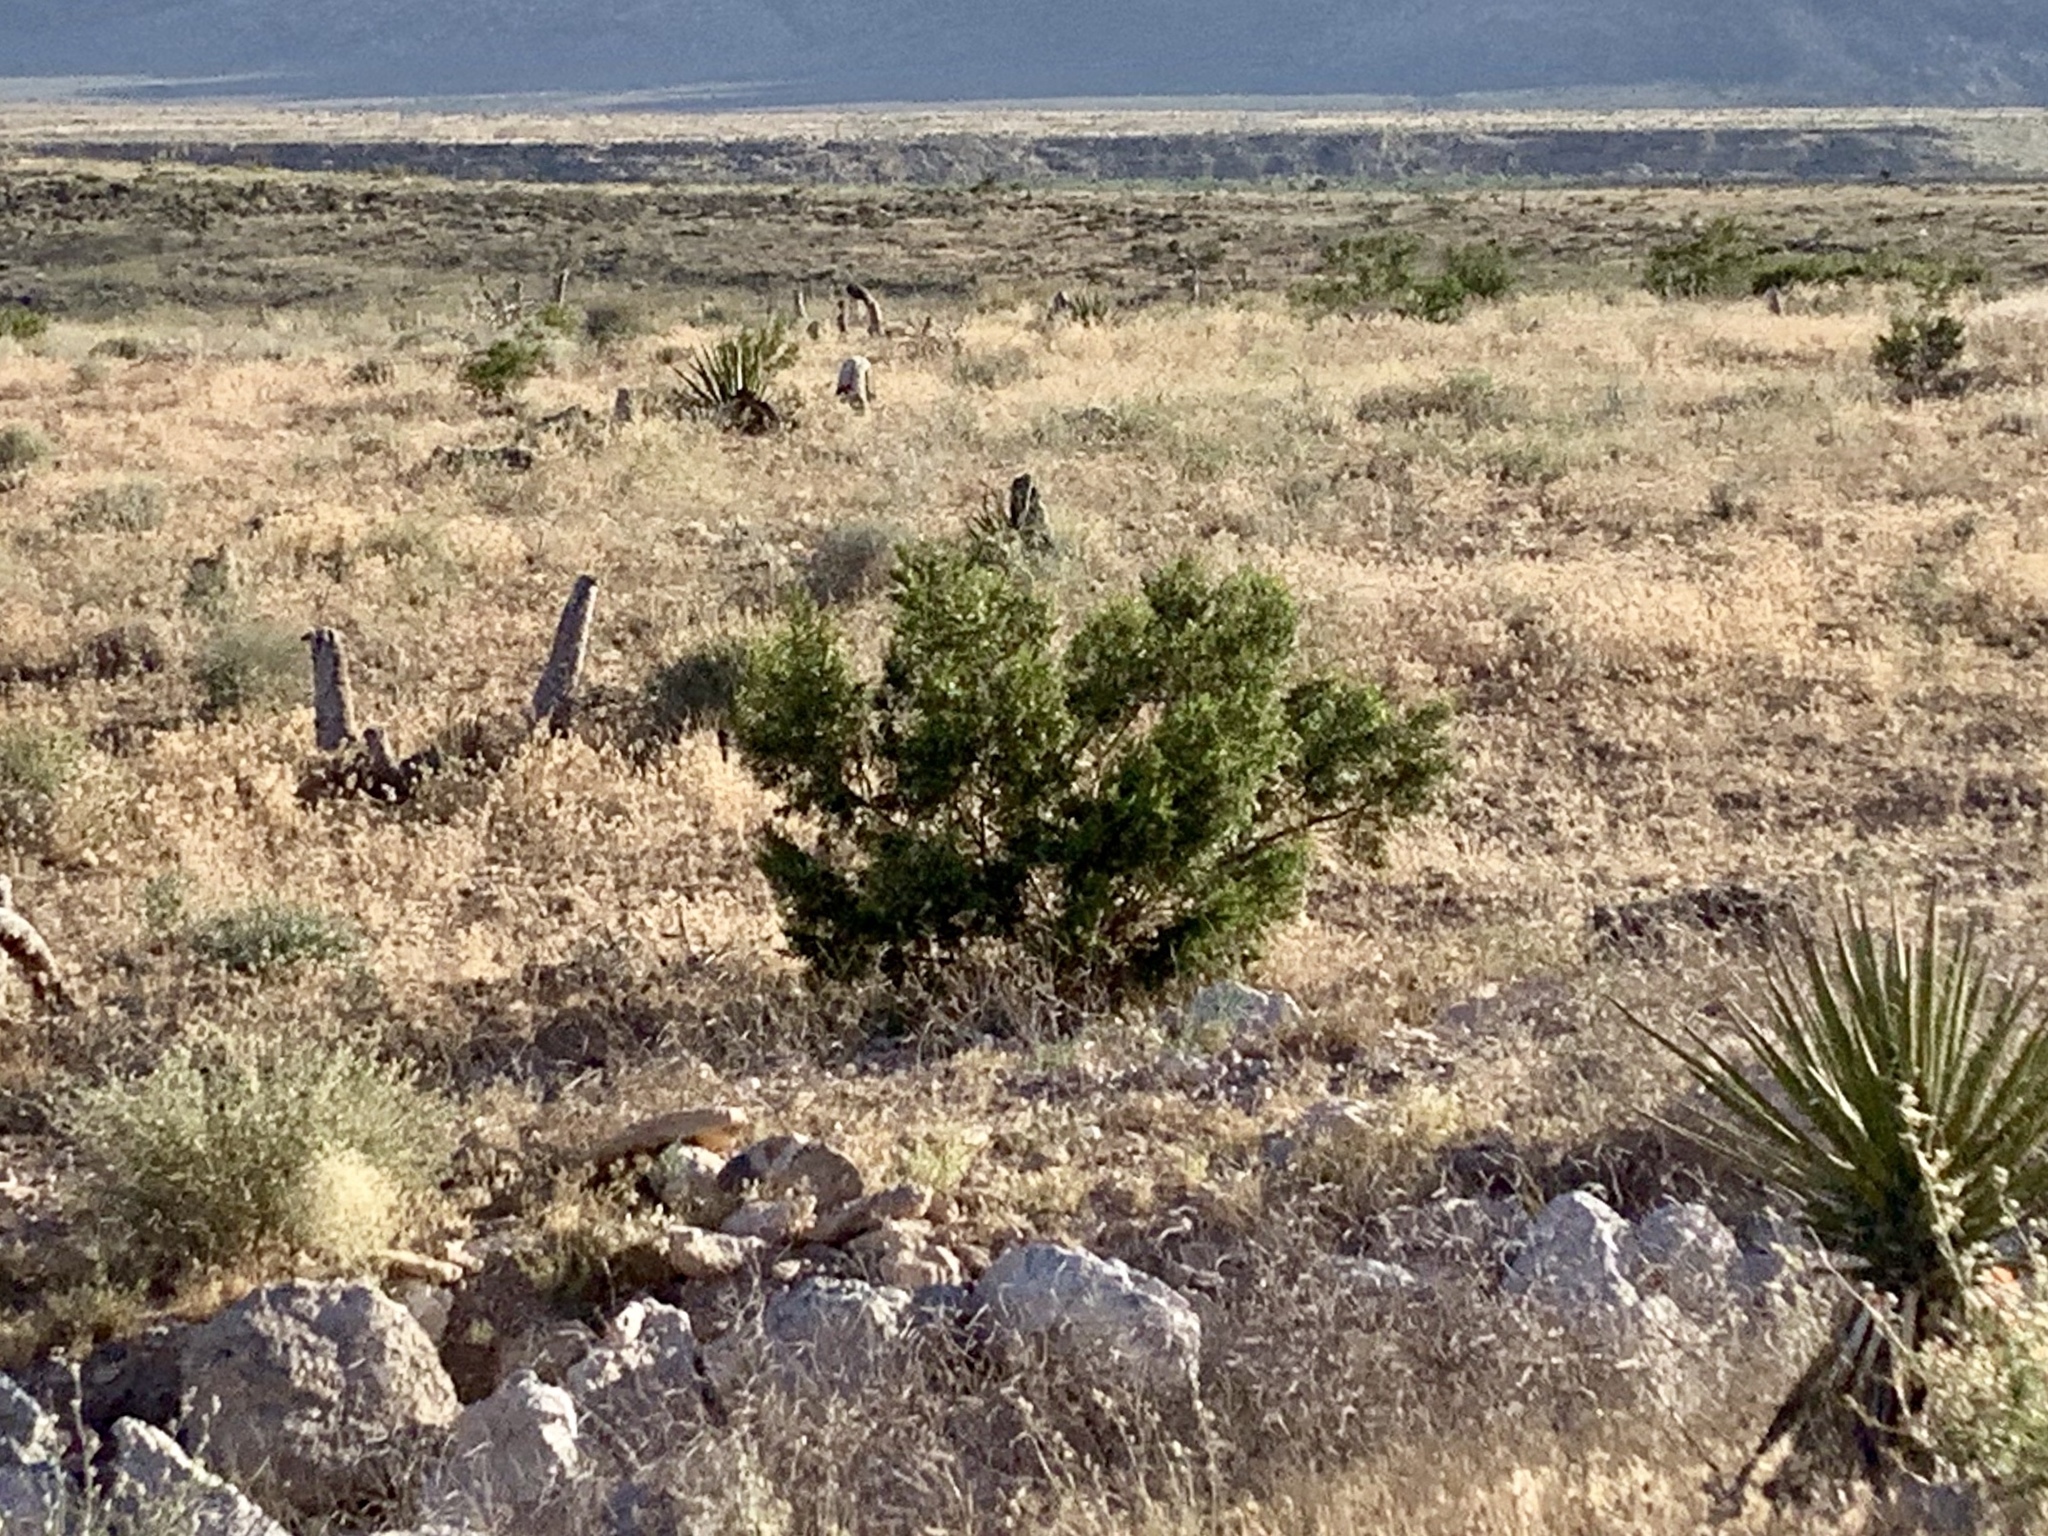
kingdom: Plantae
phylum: Tracheophyta
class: Magnoliopsida
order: Zygophyllales
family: Zygophyllaceae
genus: Larrea
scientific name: Larrea tridentata
